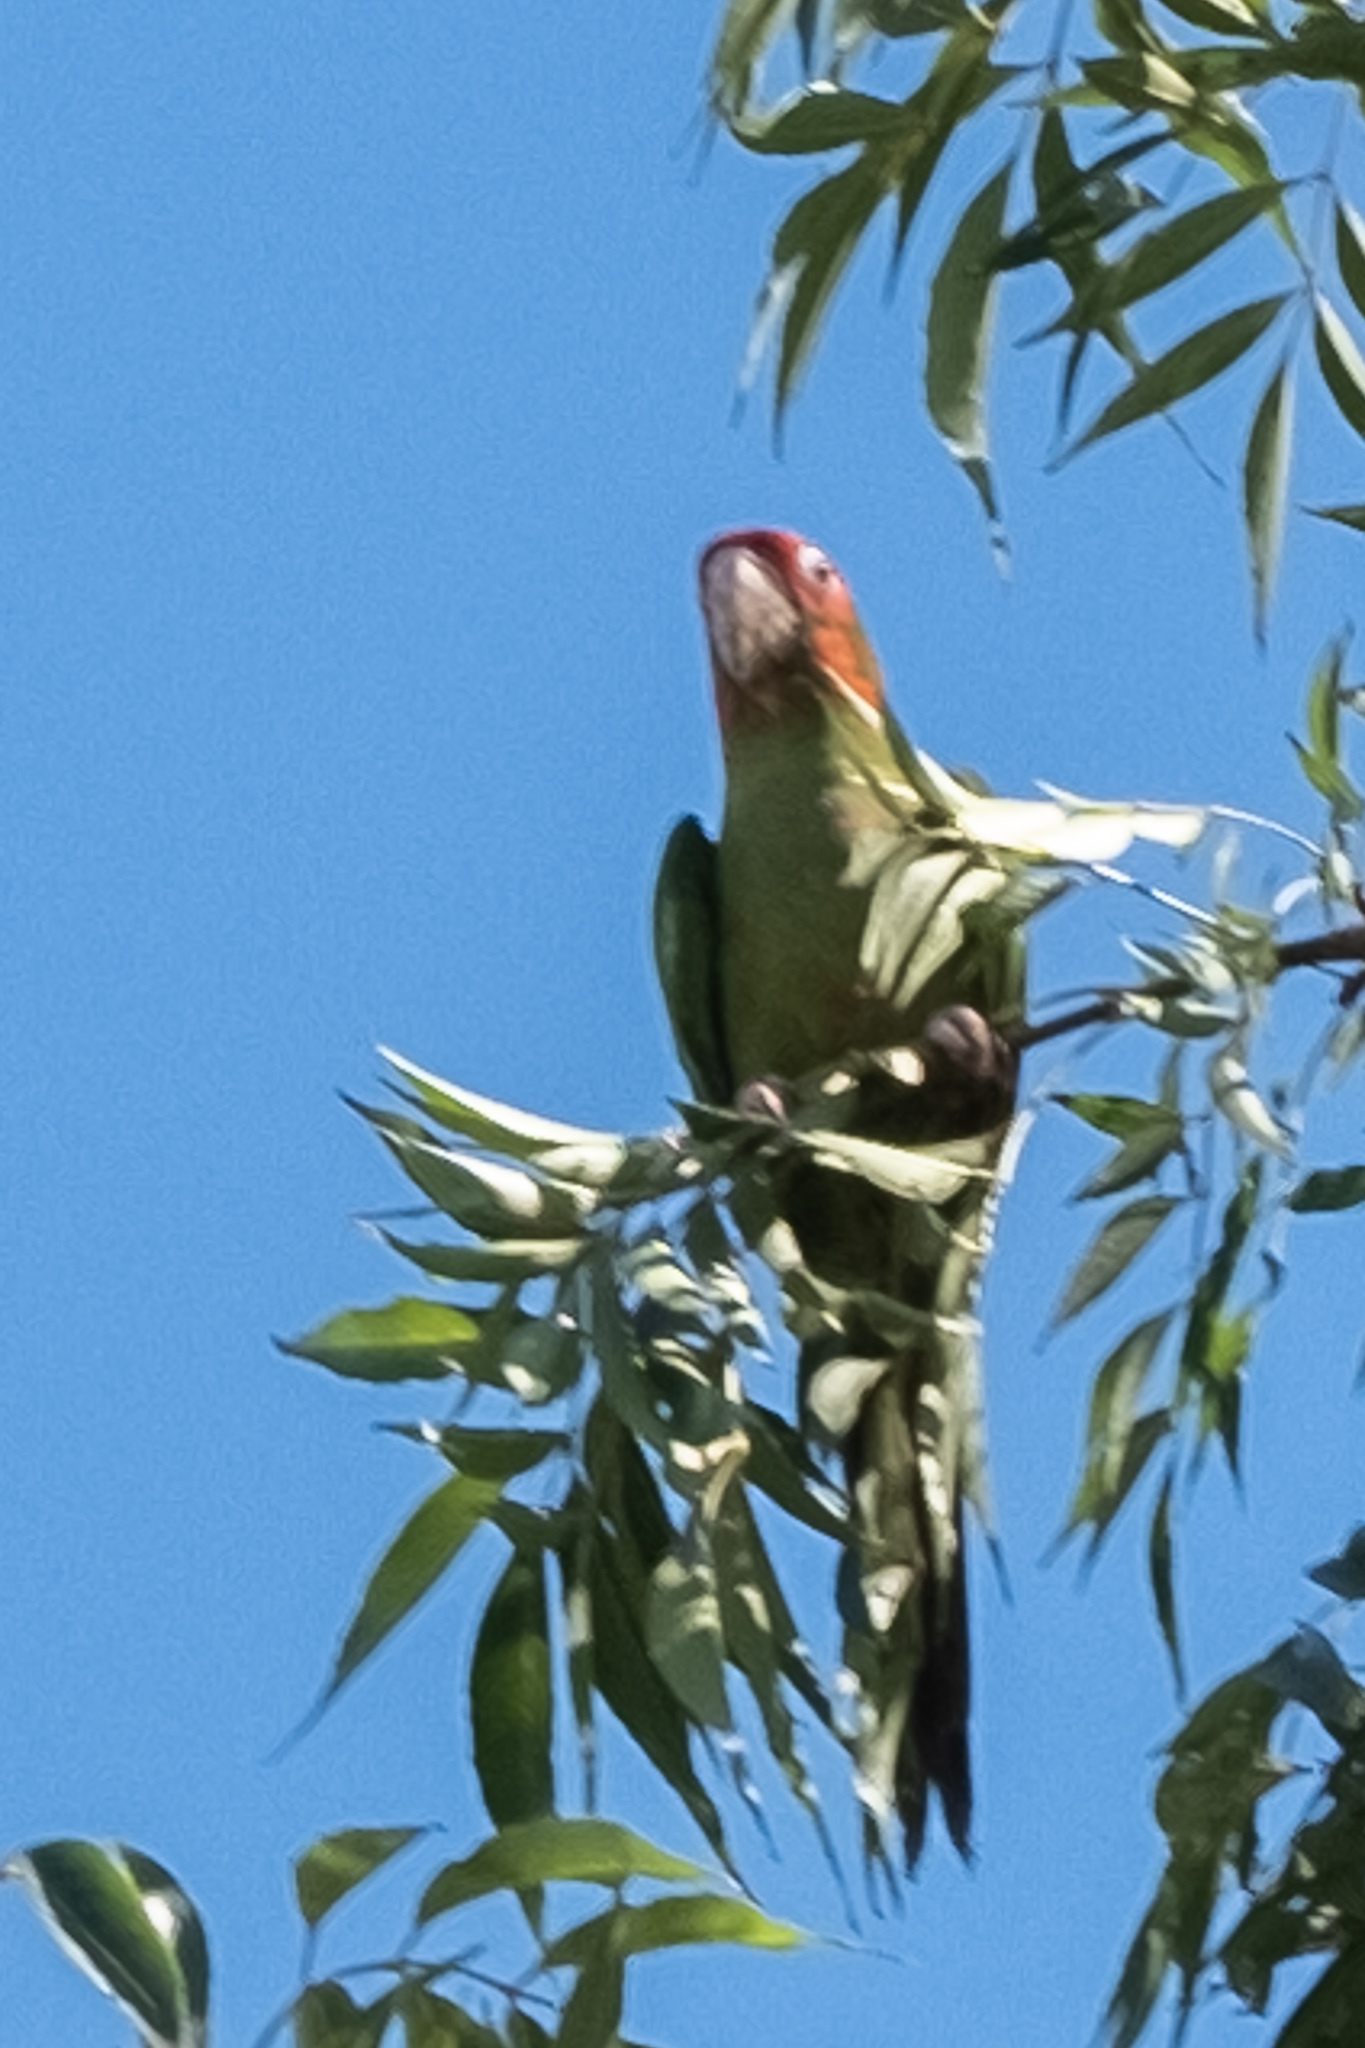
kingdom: Animalia
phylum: Chordata
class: Aves
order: Psittaciformes
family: Psittacidae
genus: Aratinga
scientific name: Aratinga mitrata
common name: Mitred parakeet
